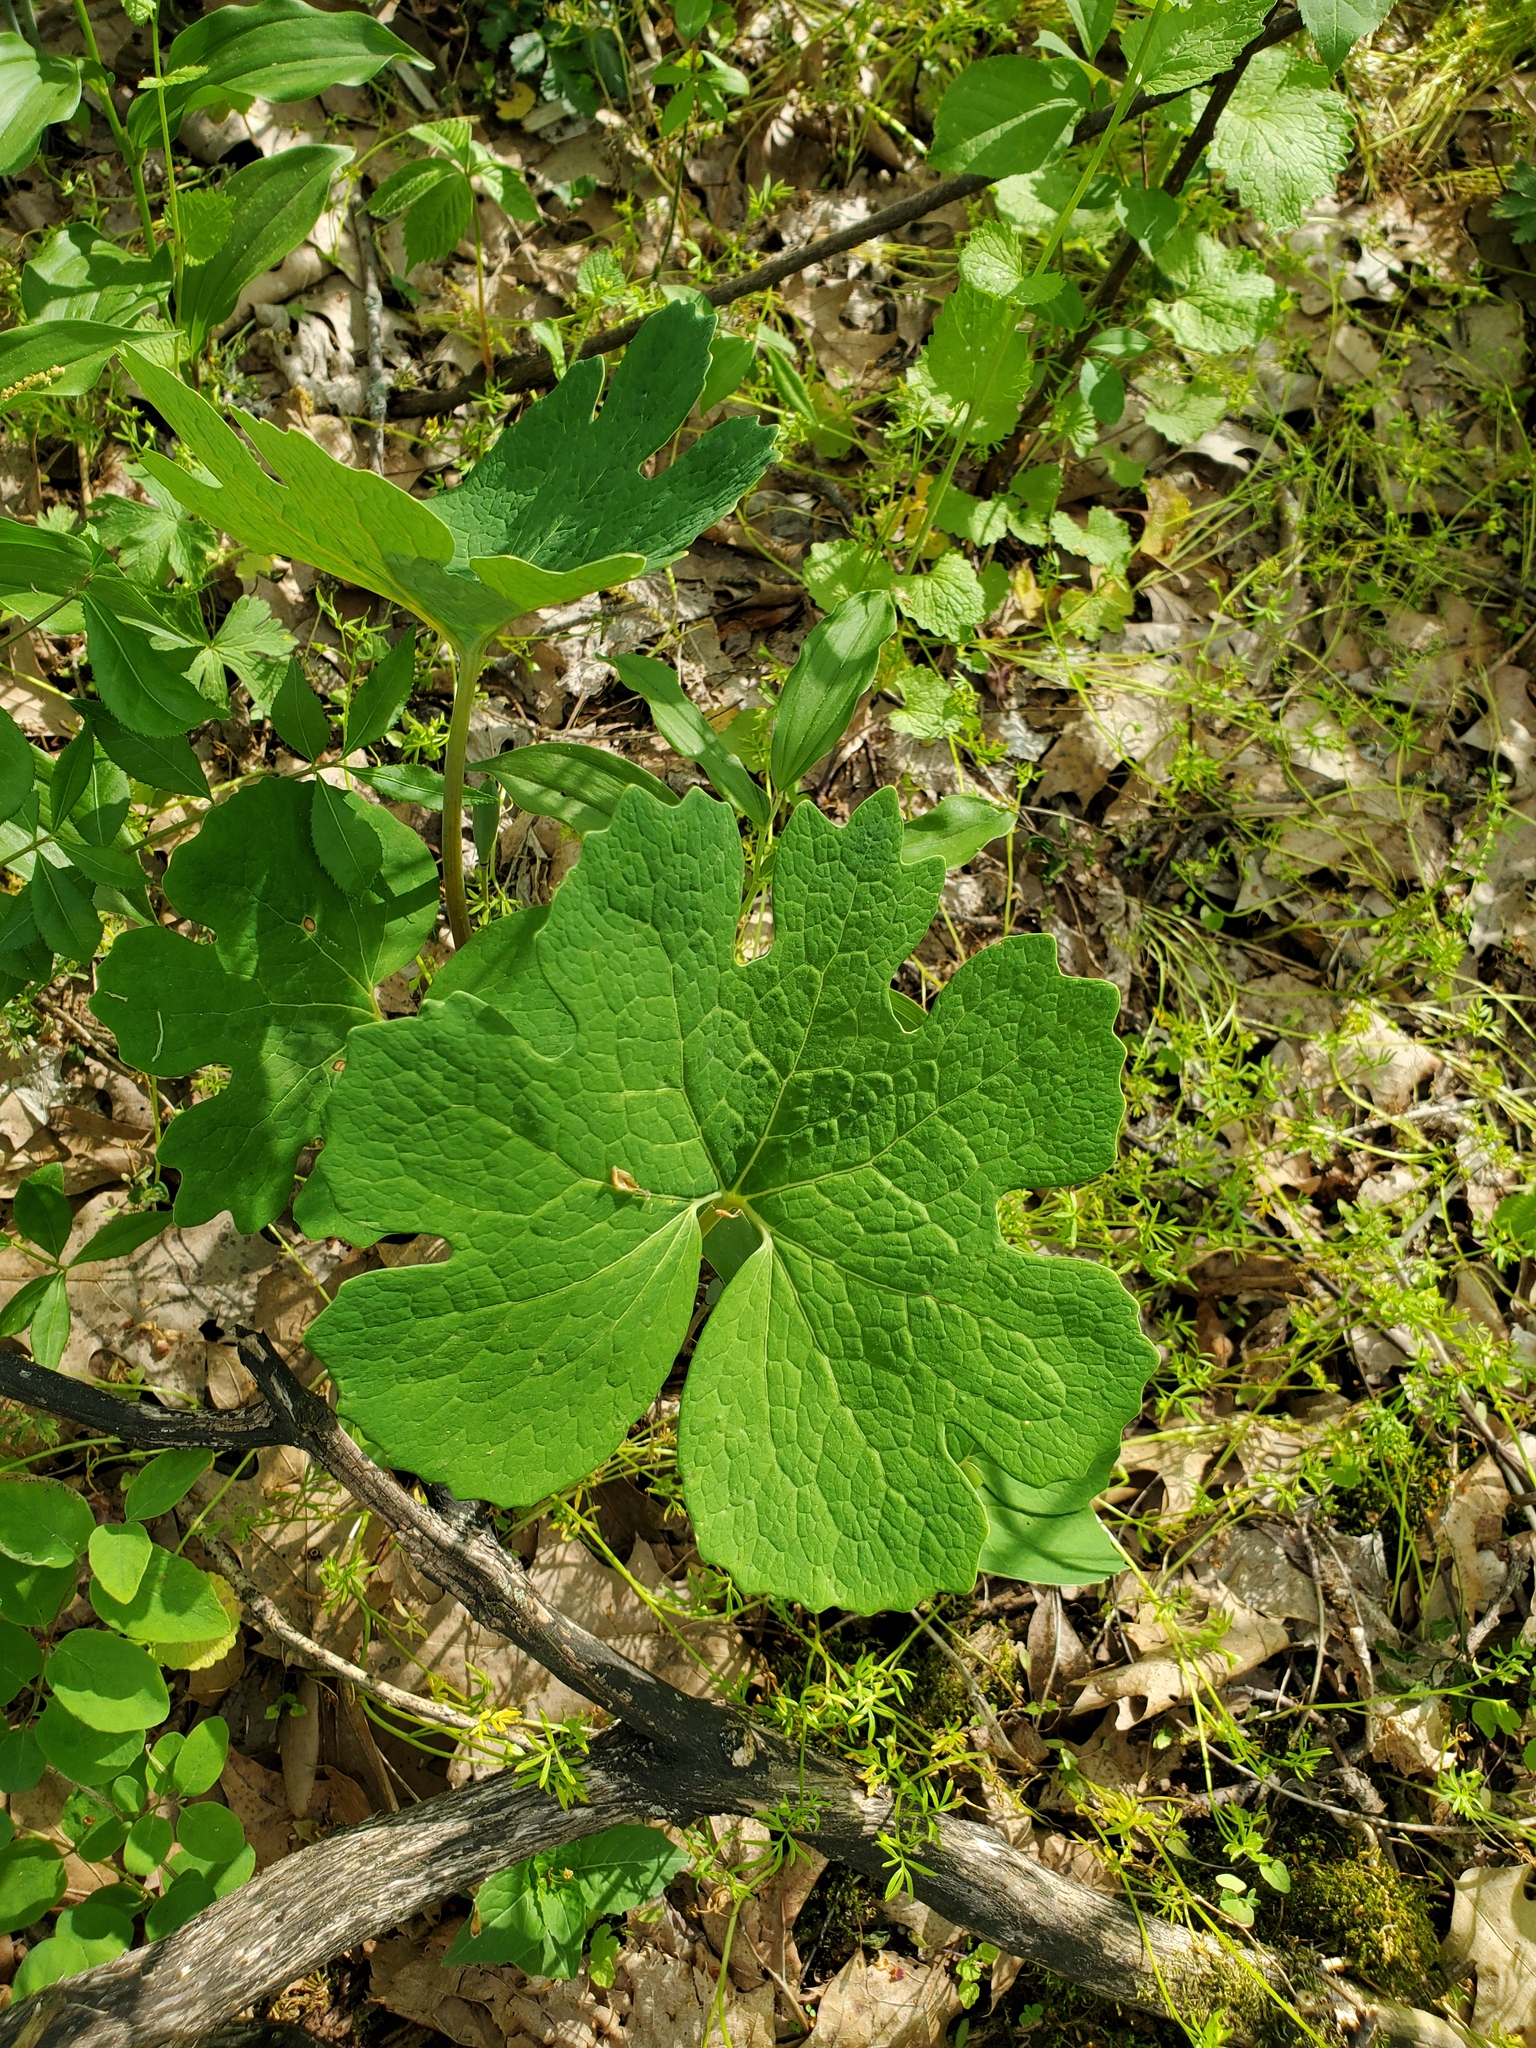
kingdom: Plantae
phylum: Tracheophyta
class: Magnoliopsida
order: Ranunculales
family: Papaveraceae
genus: Sanguinaria
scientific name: Sanguinaria canadensis
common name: Bloodroot
